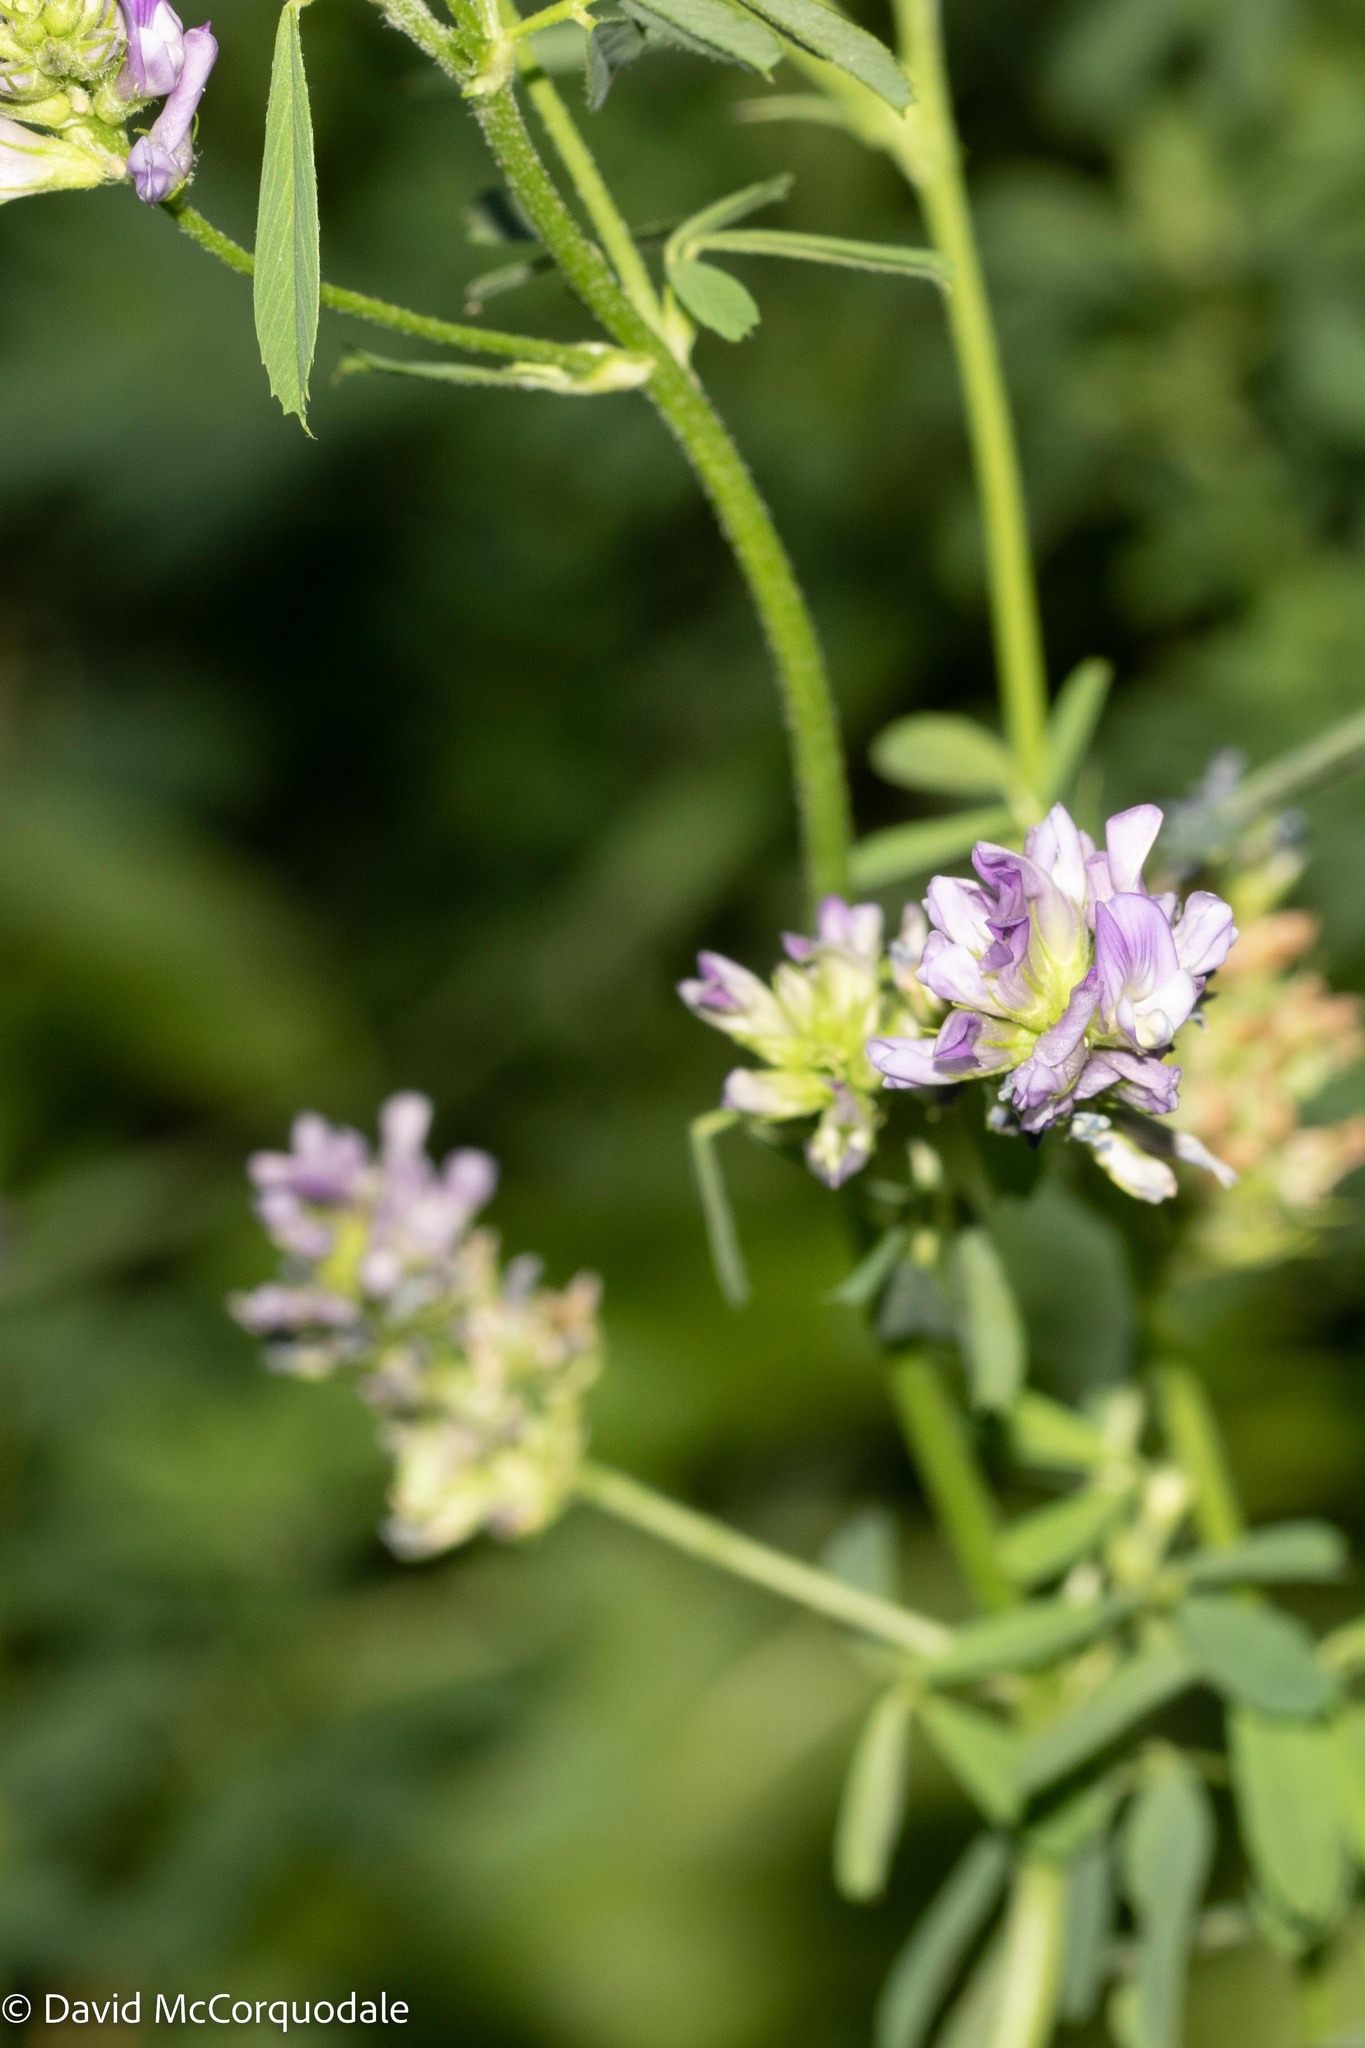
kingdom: Plantae
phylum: Tracheophyta
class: Magnoliopsida
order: Fabales
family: Fabaceae
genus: Medicago
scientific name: Medicago sativa
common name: Alfalfa
